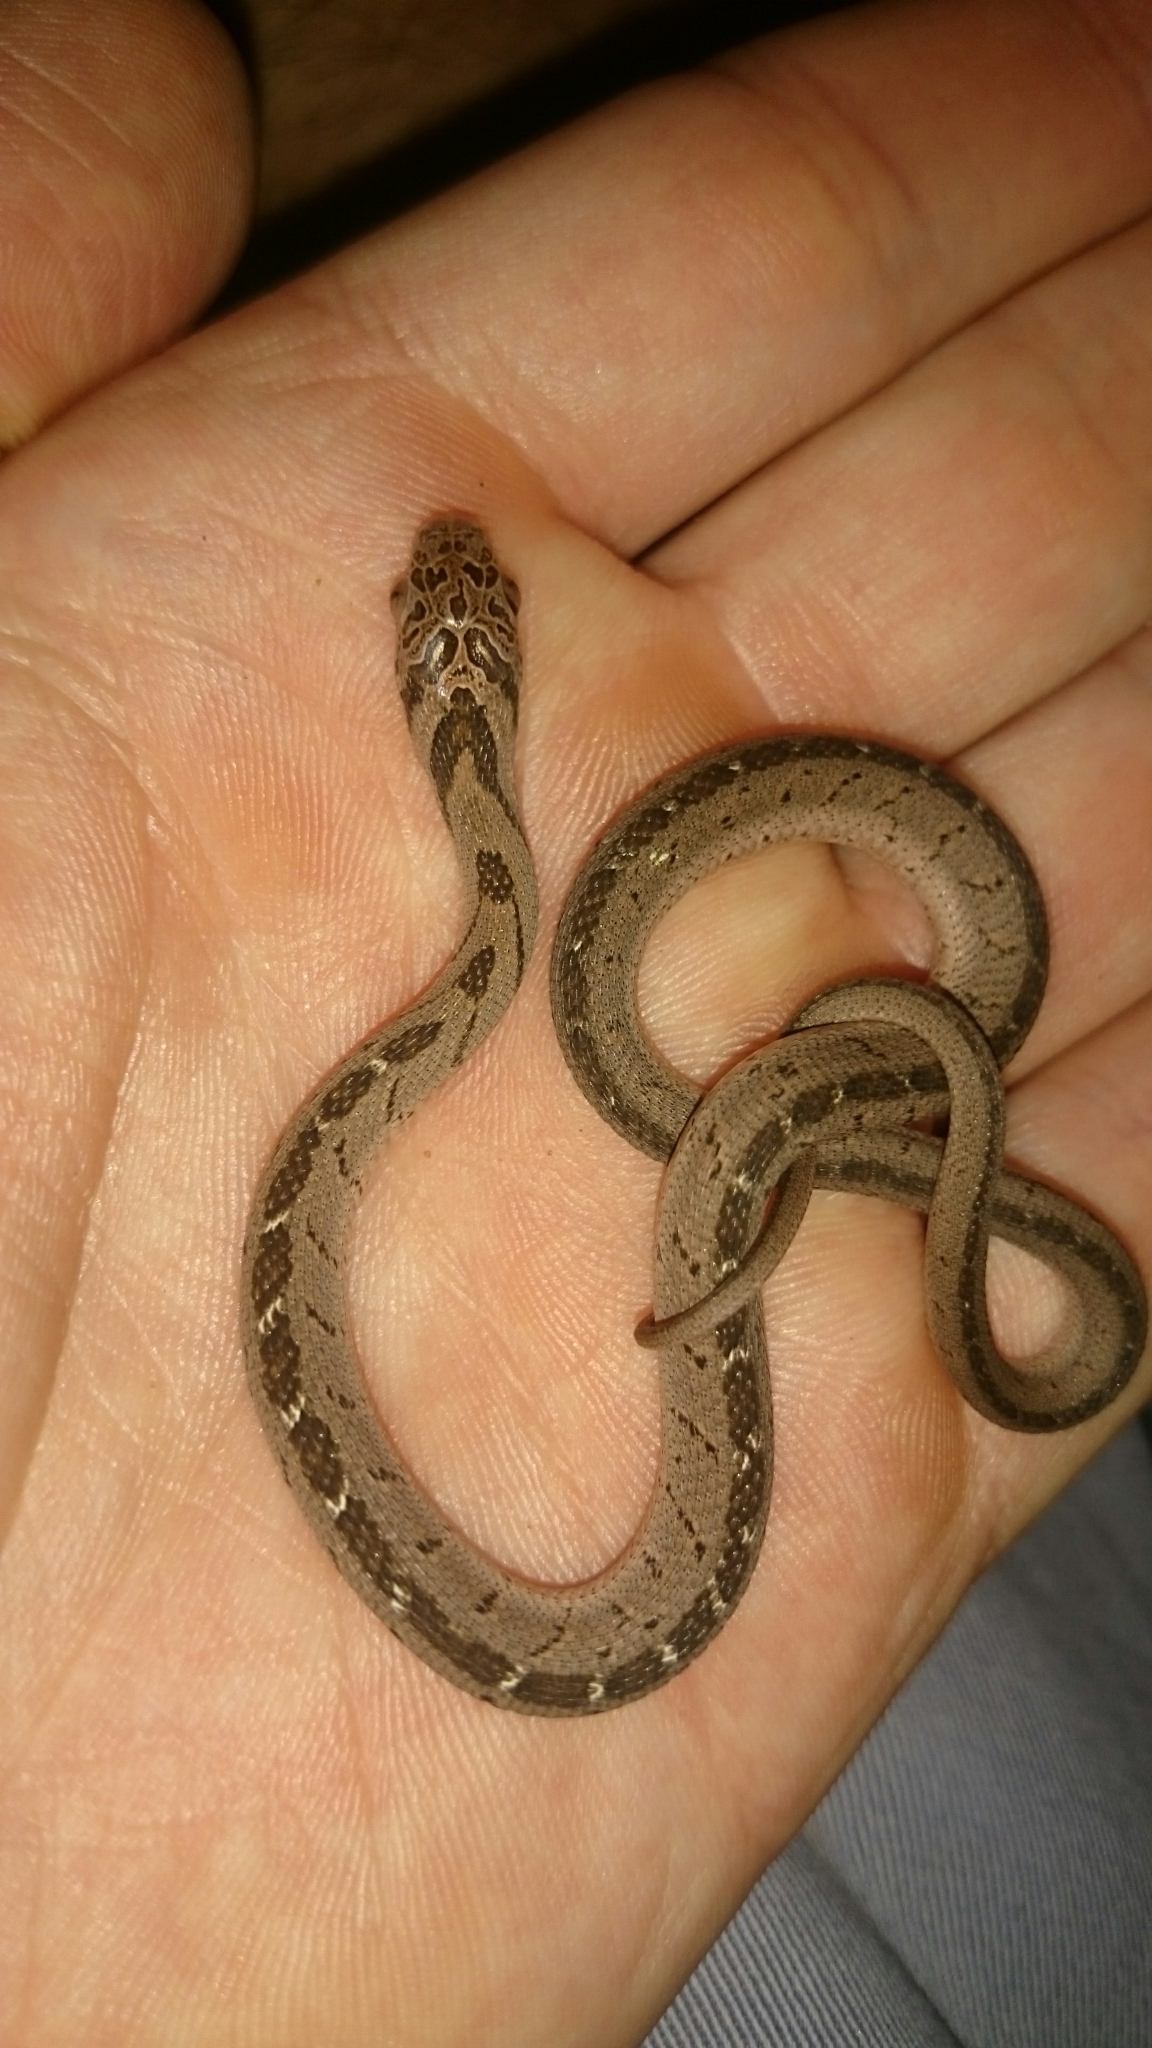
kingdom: Animalia
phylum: Chordata
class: Squamata
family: Colubridae
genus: Dasypeltis
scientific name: Dasypeltis medici
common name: East african egg eater
